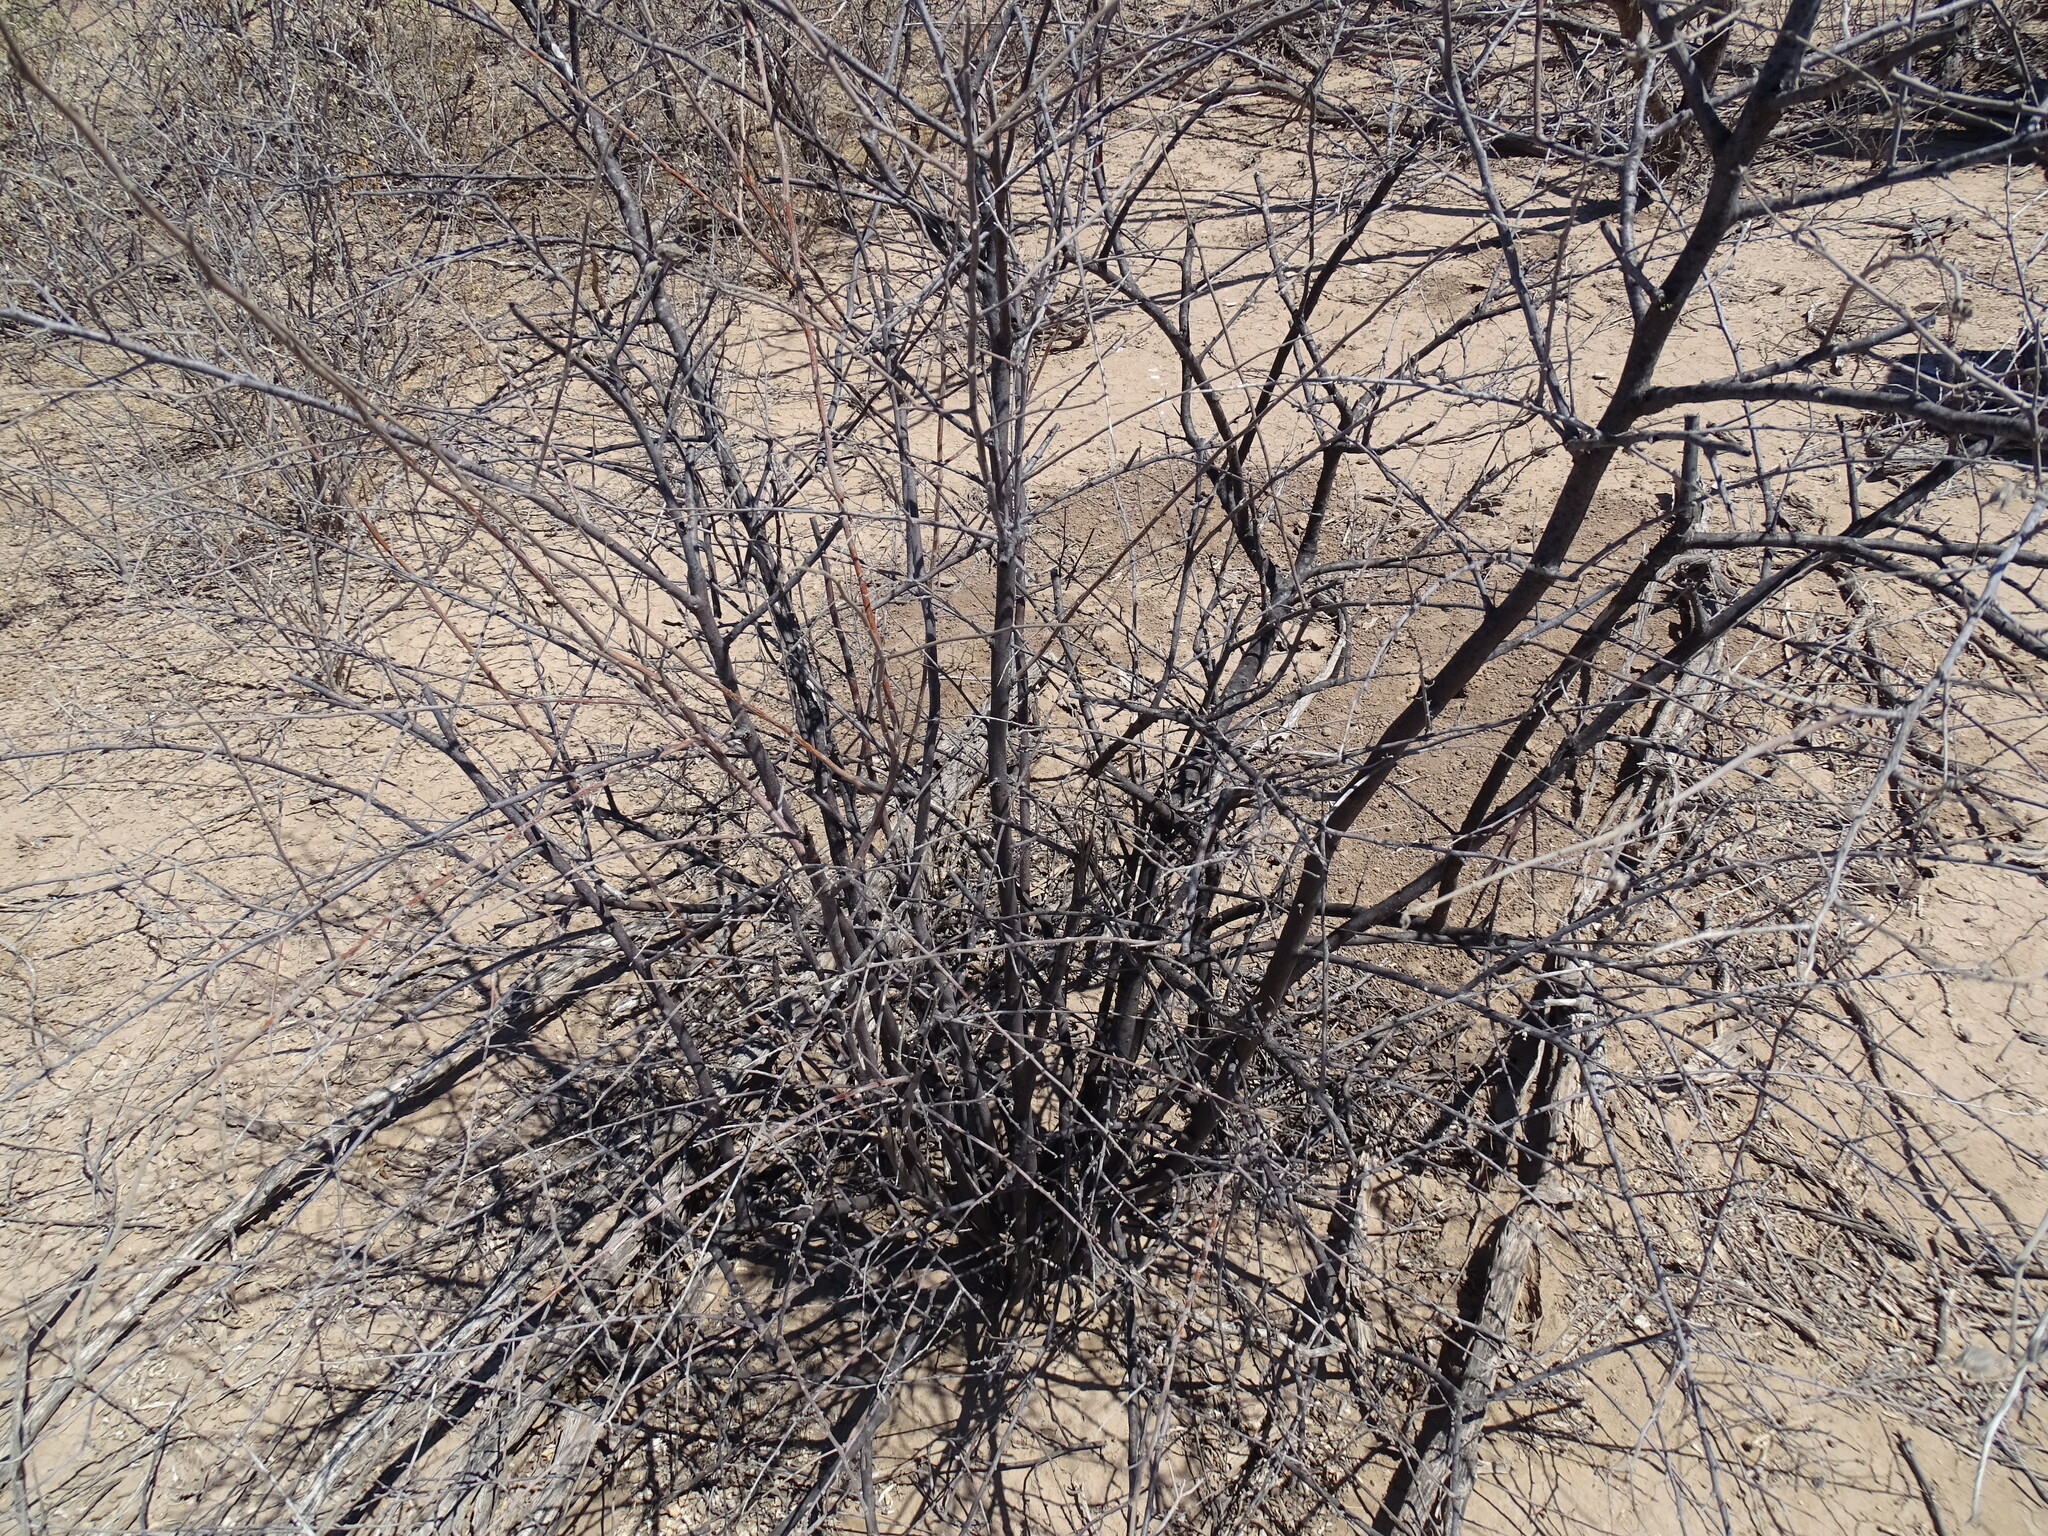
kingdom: Plantae
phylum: Tracheophyta
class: Magnoliopsida
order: Boraginales
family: Cordiaceae
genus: Cordia
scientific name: Cordia parvifolia
